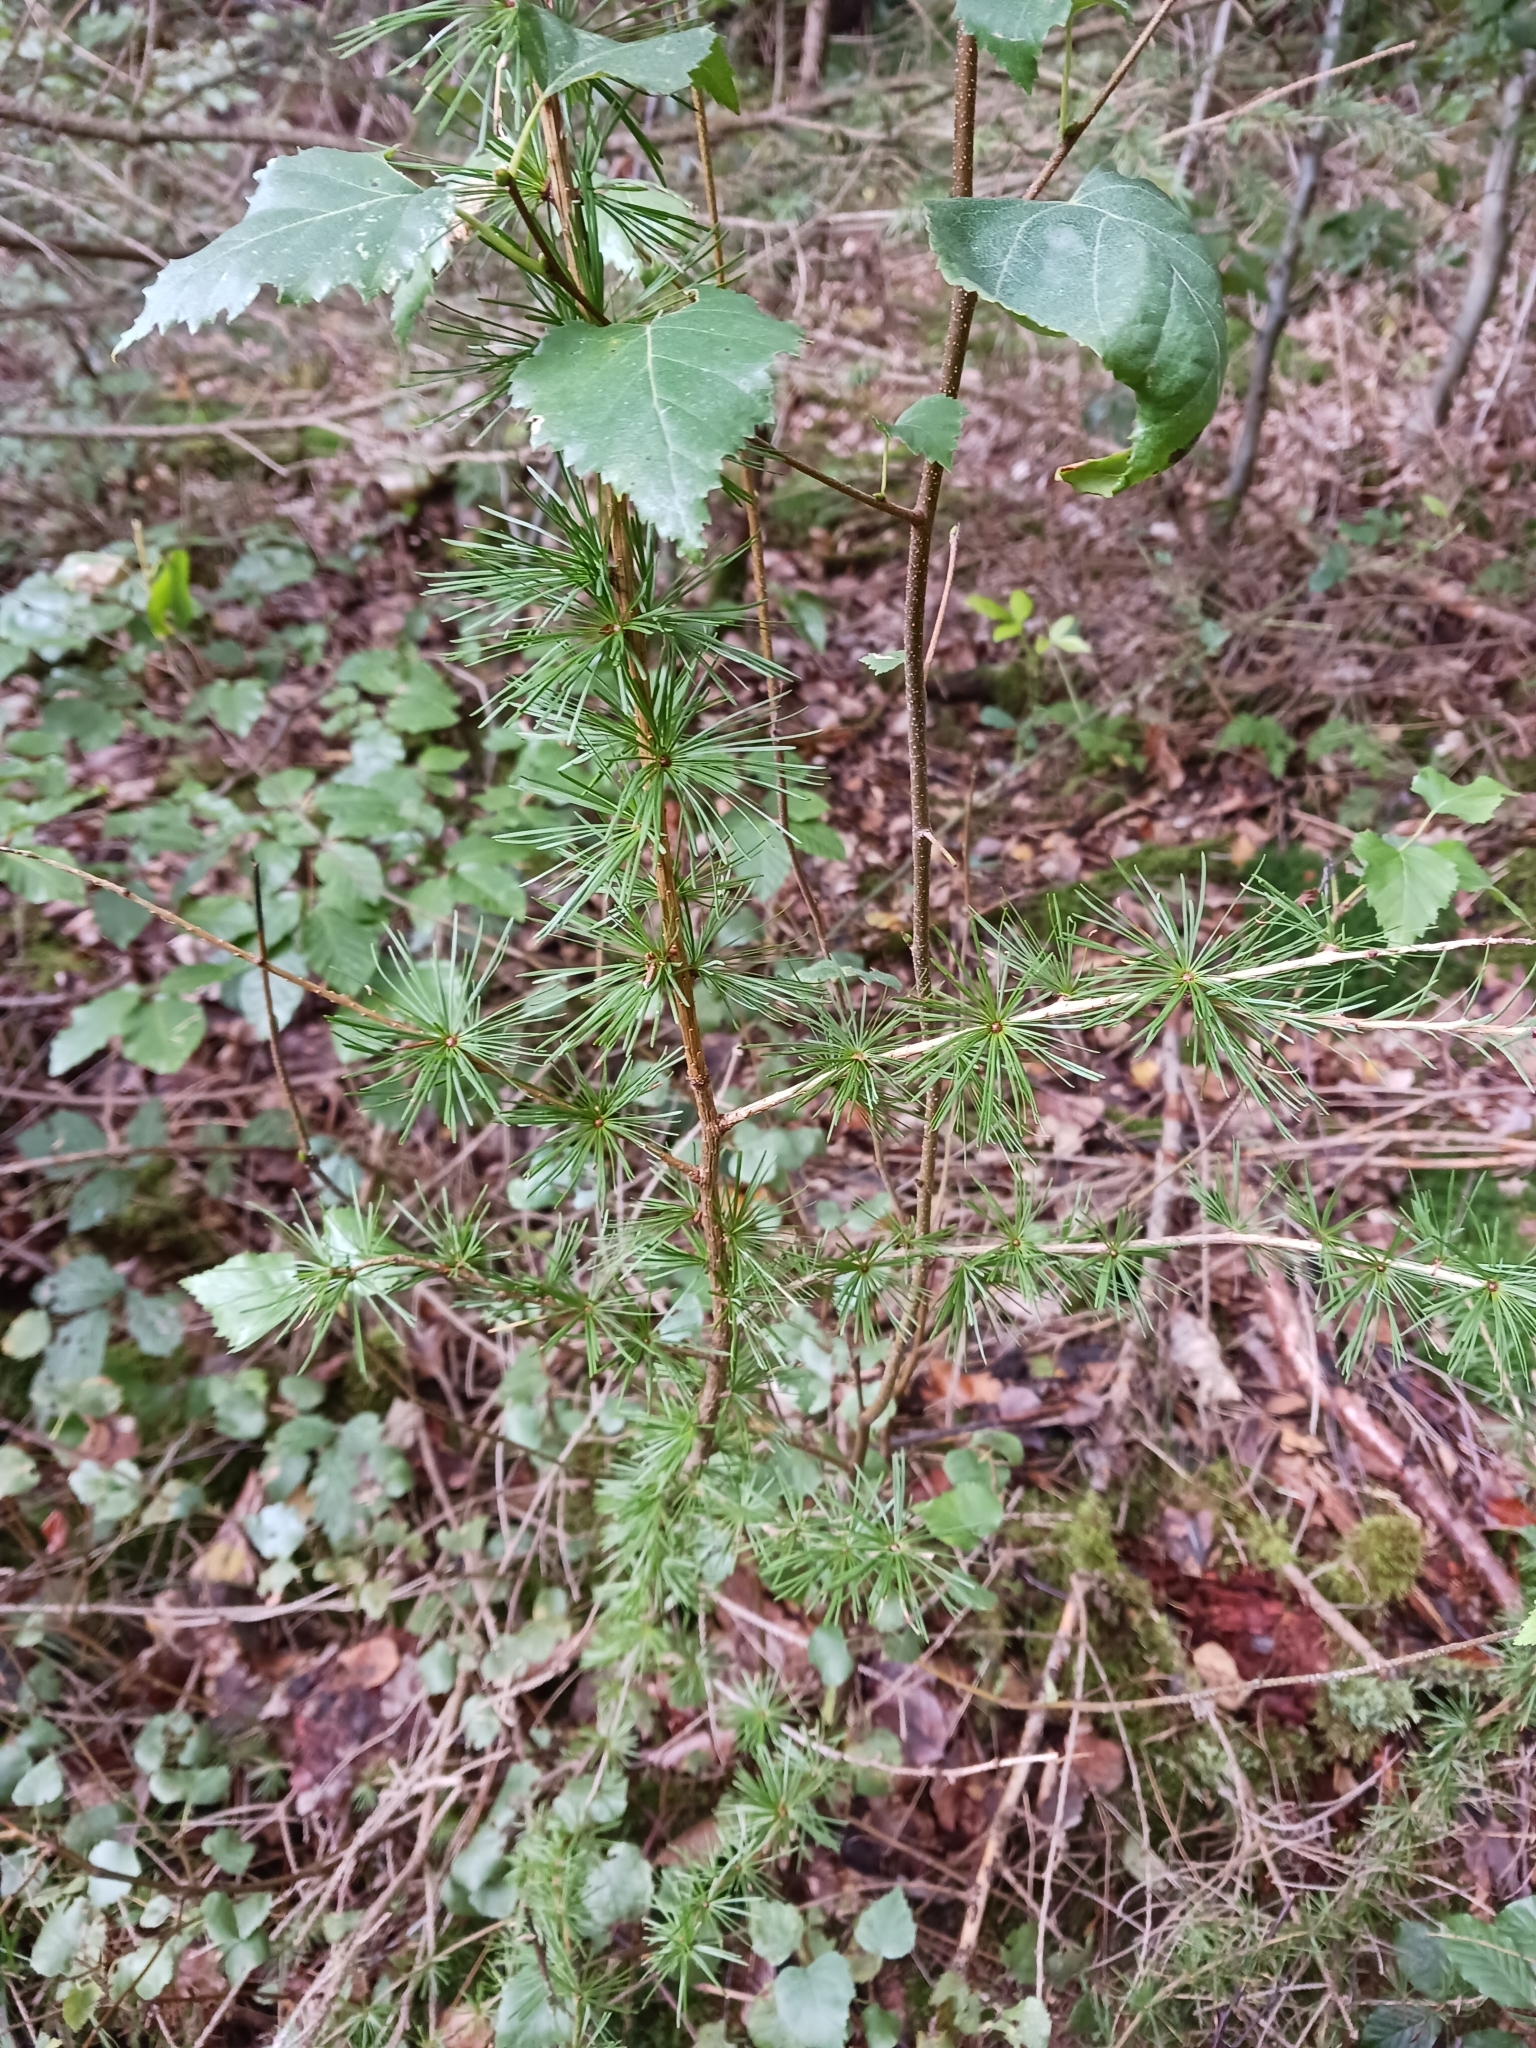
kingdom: Plantae
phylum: Tracheophyta
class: Pinopsida
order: Pinales
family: Pinaceae
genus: Larix
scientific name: Larix decidua
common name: European larch
